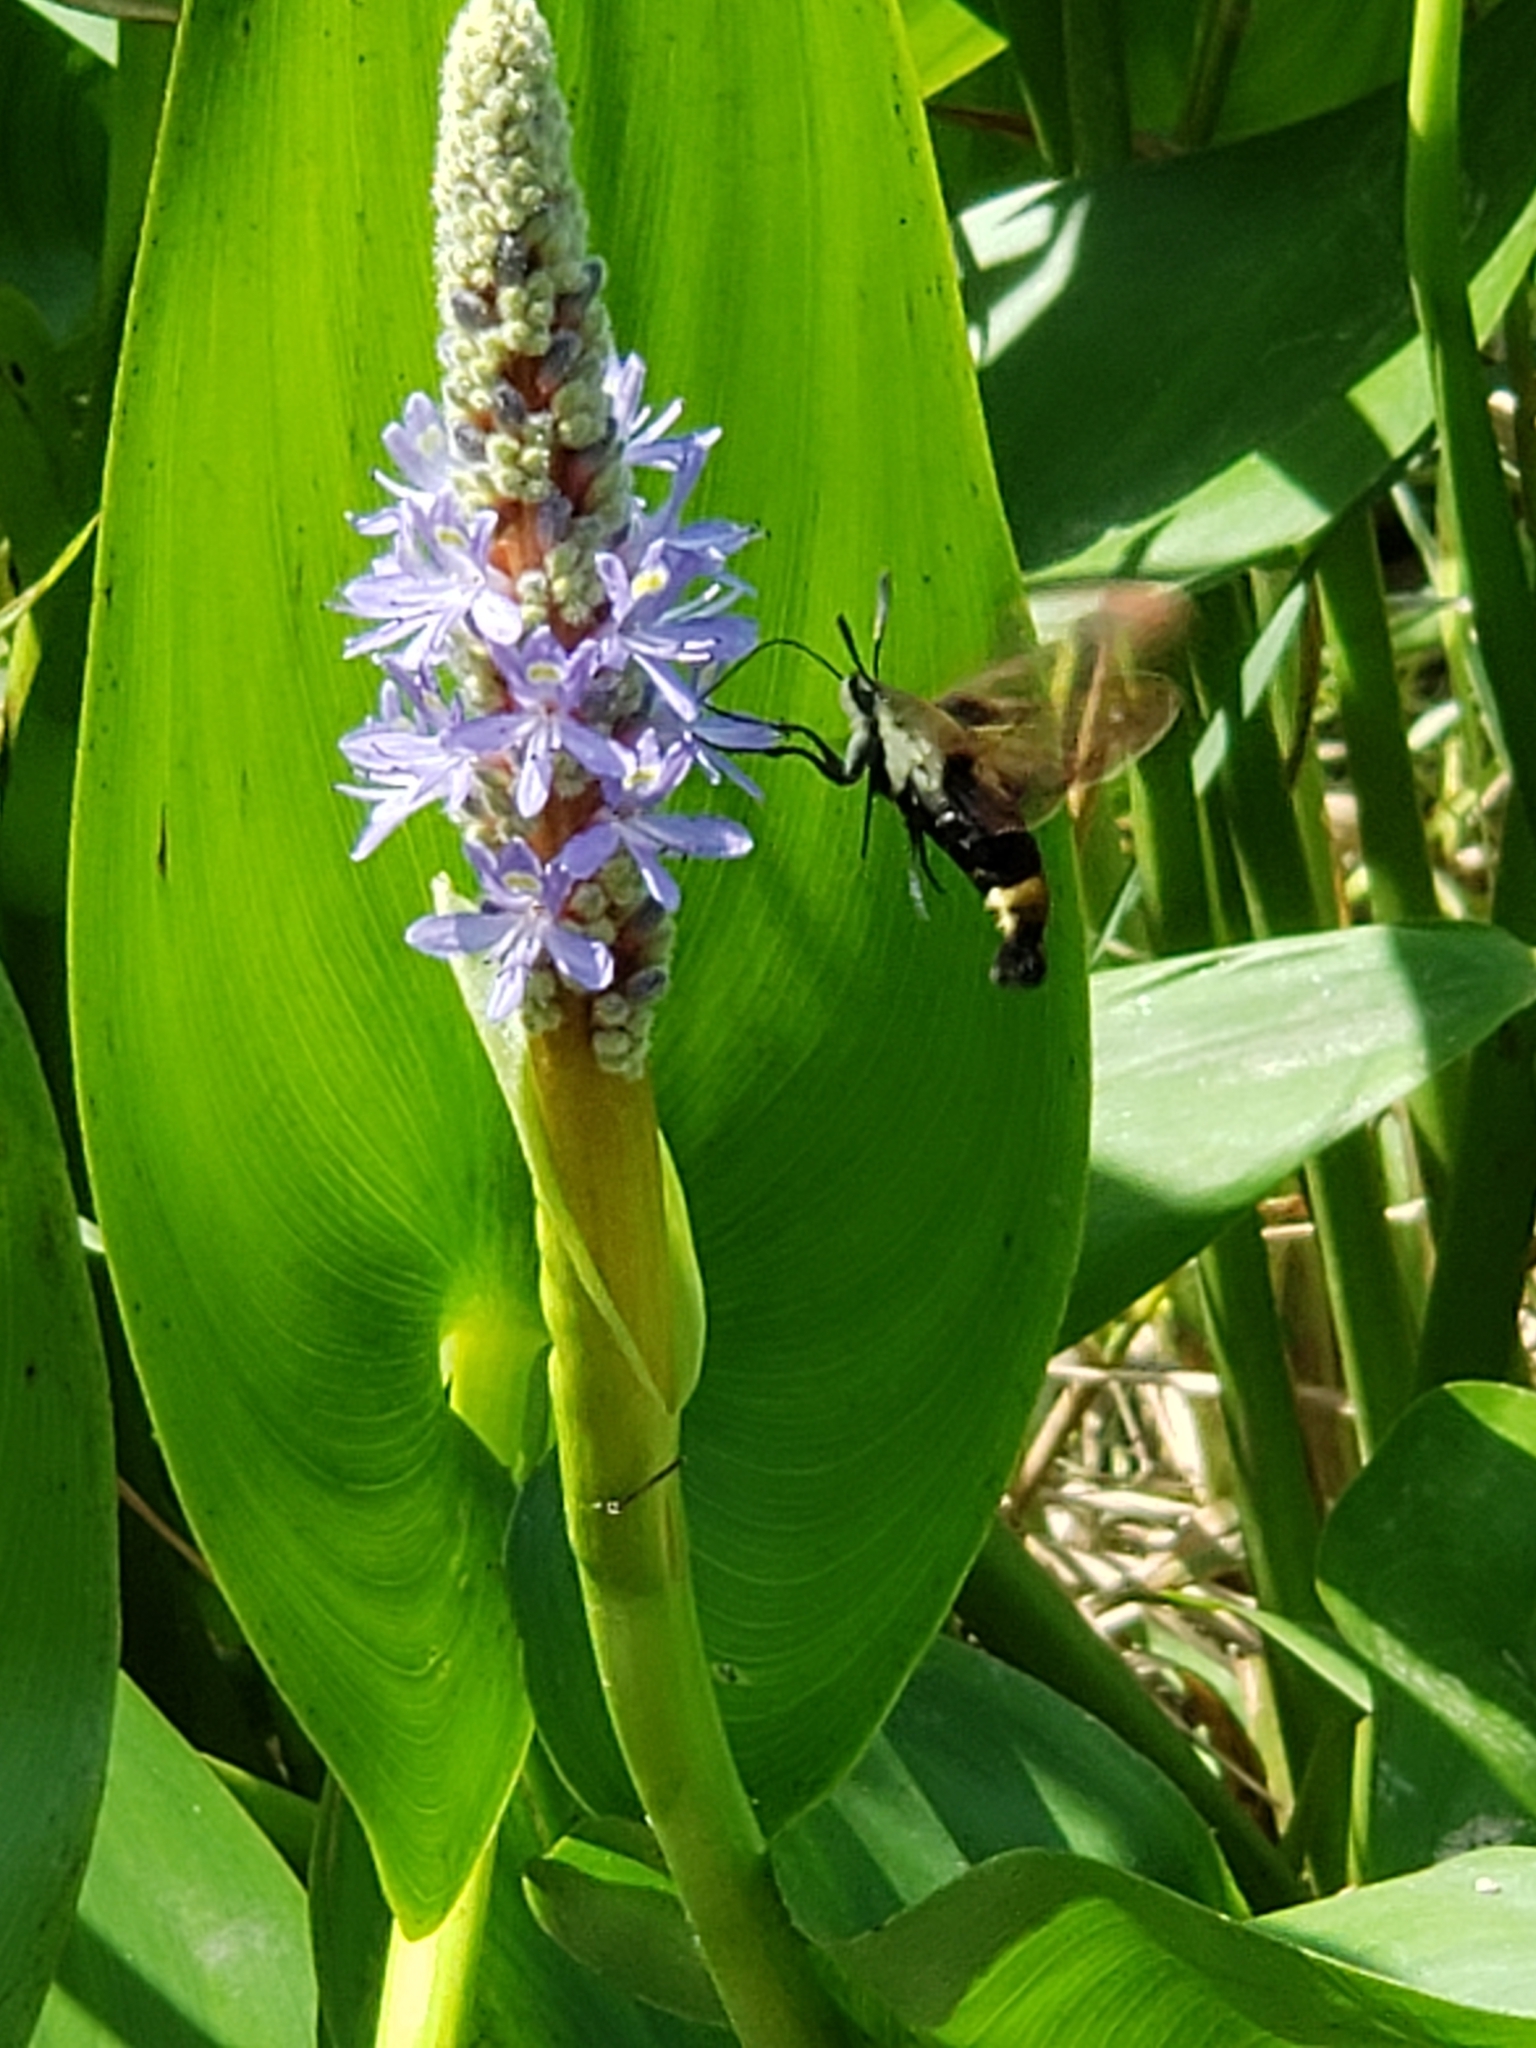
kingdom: Animalia
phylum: Arthropoda
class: Insecta
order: Lepidoptera
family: Sphingidae
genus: Hemaris
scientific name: Hemaris diffinis
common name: Bumblebee moth
